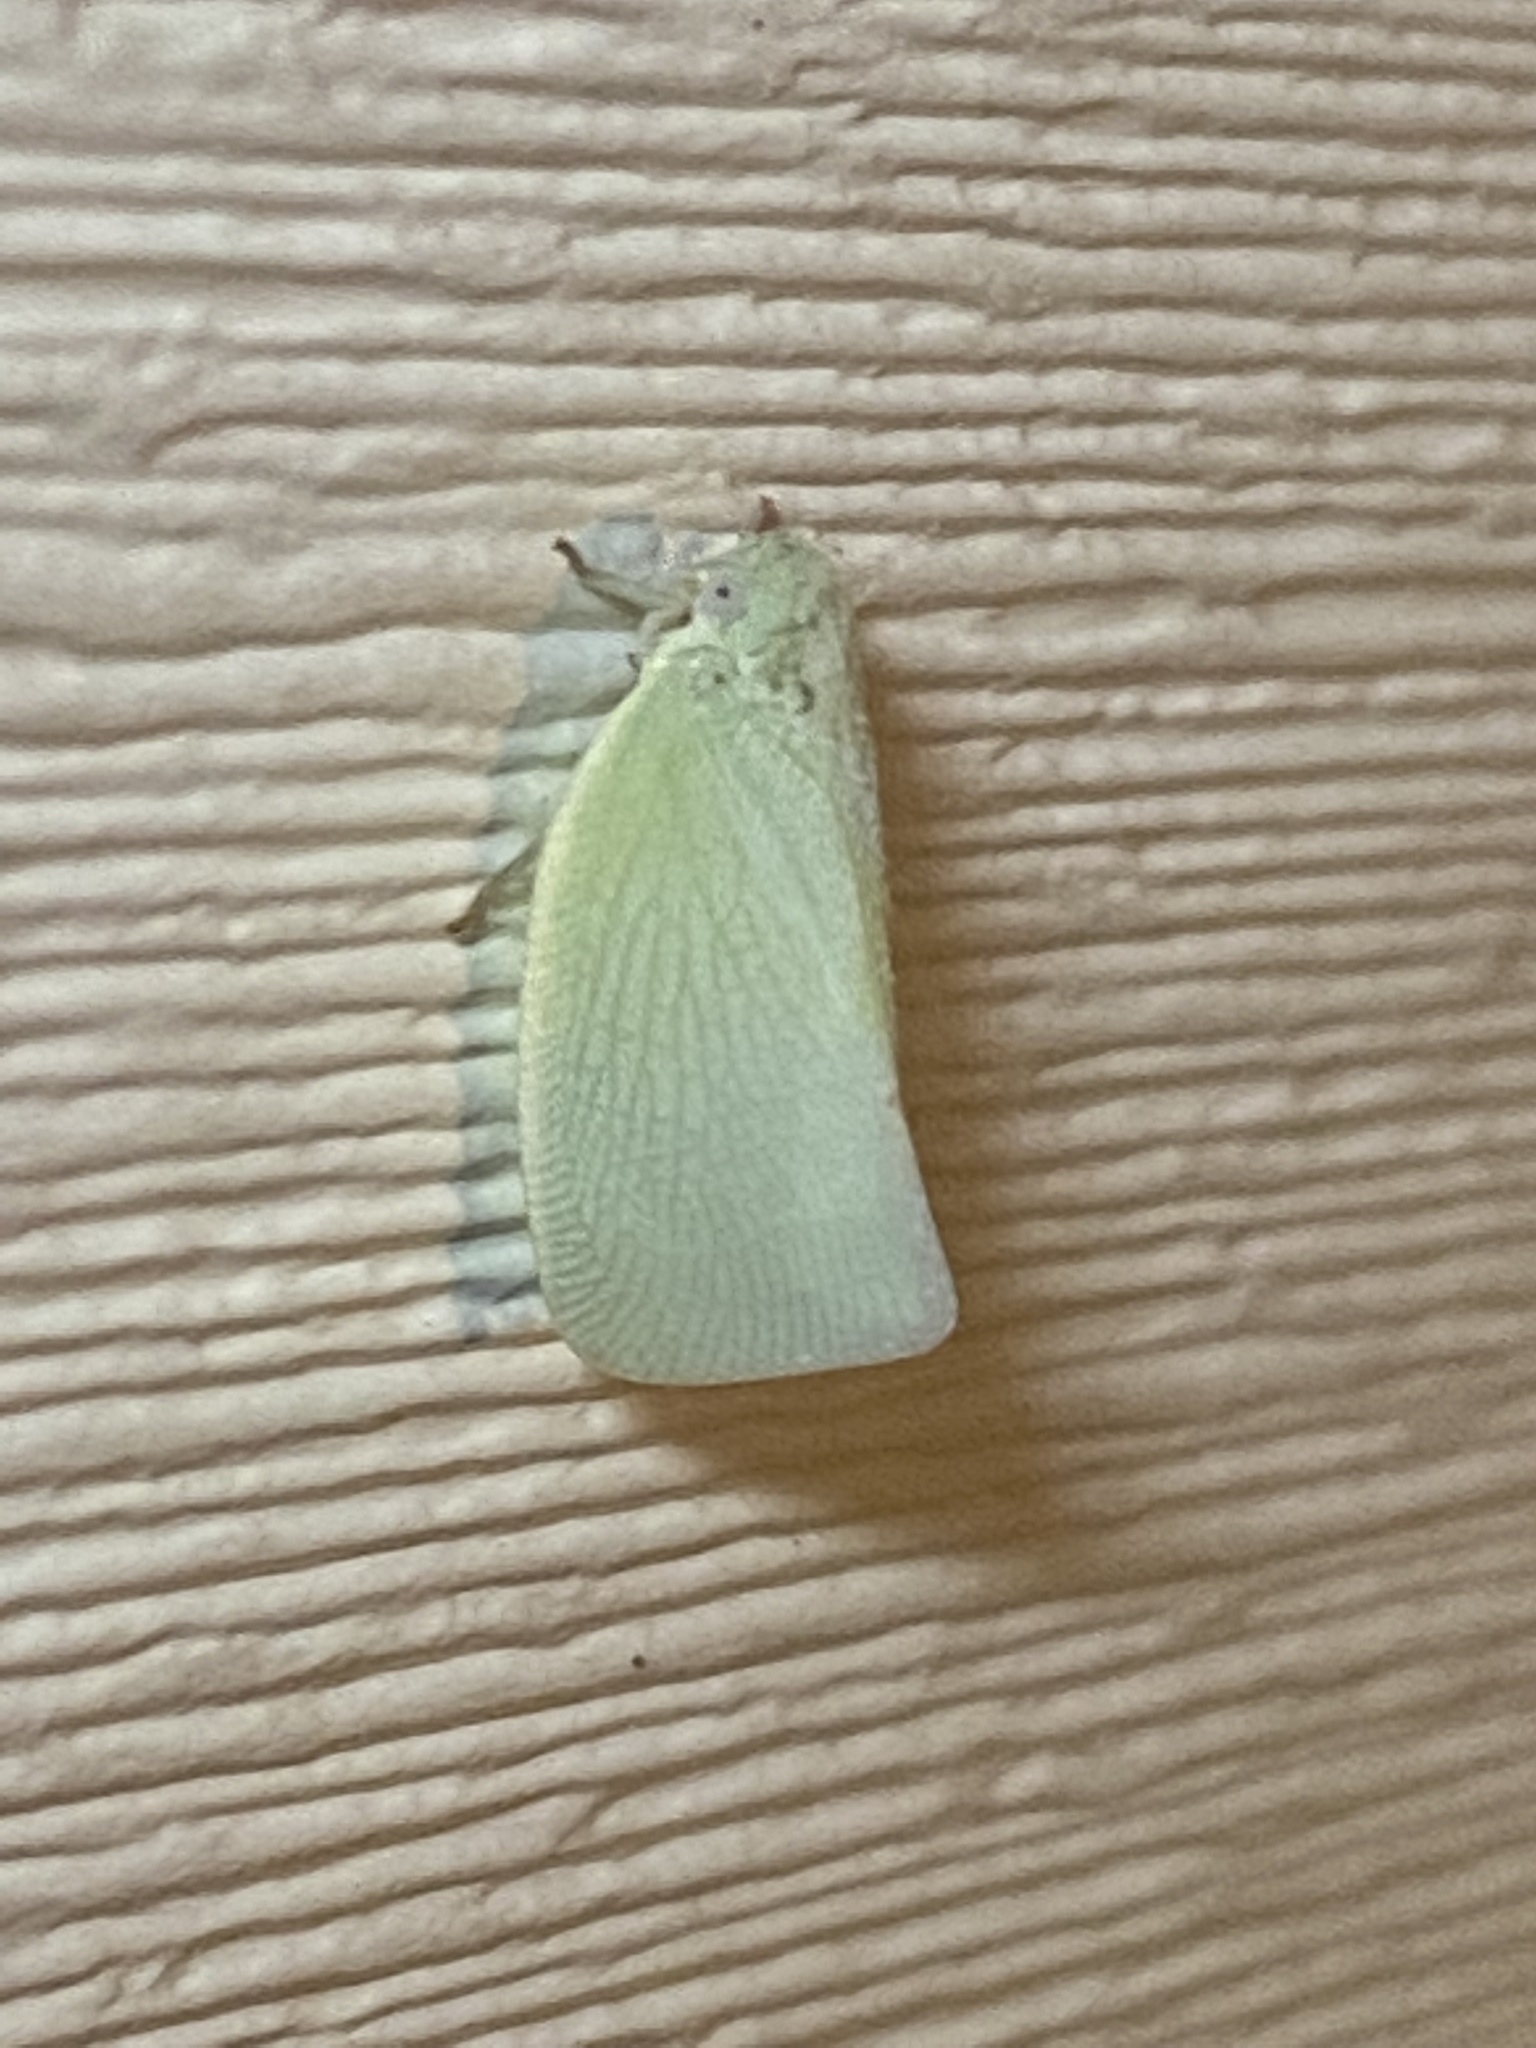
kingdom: Animalia
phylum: Arthropoda
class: Insecta
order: Hemiptera
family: Flatidae
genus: Flatormenis
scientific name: Flatormenis proxima
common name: Northern flatid planthopper
